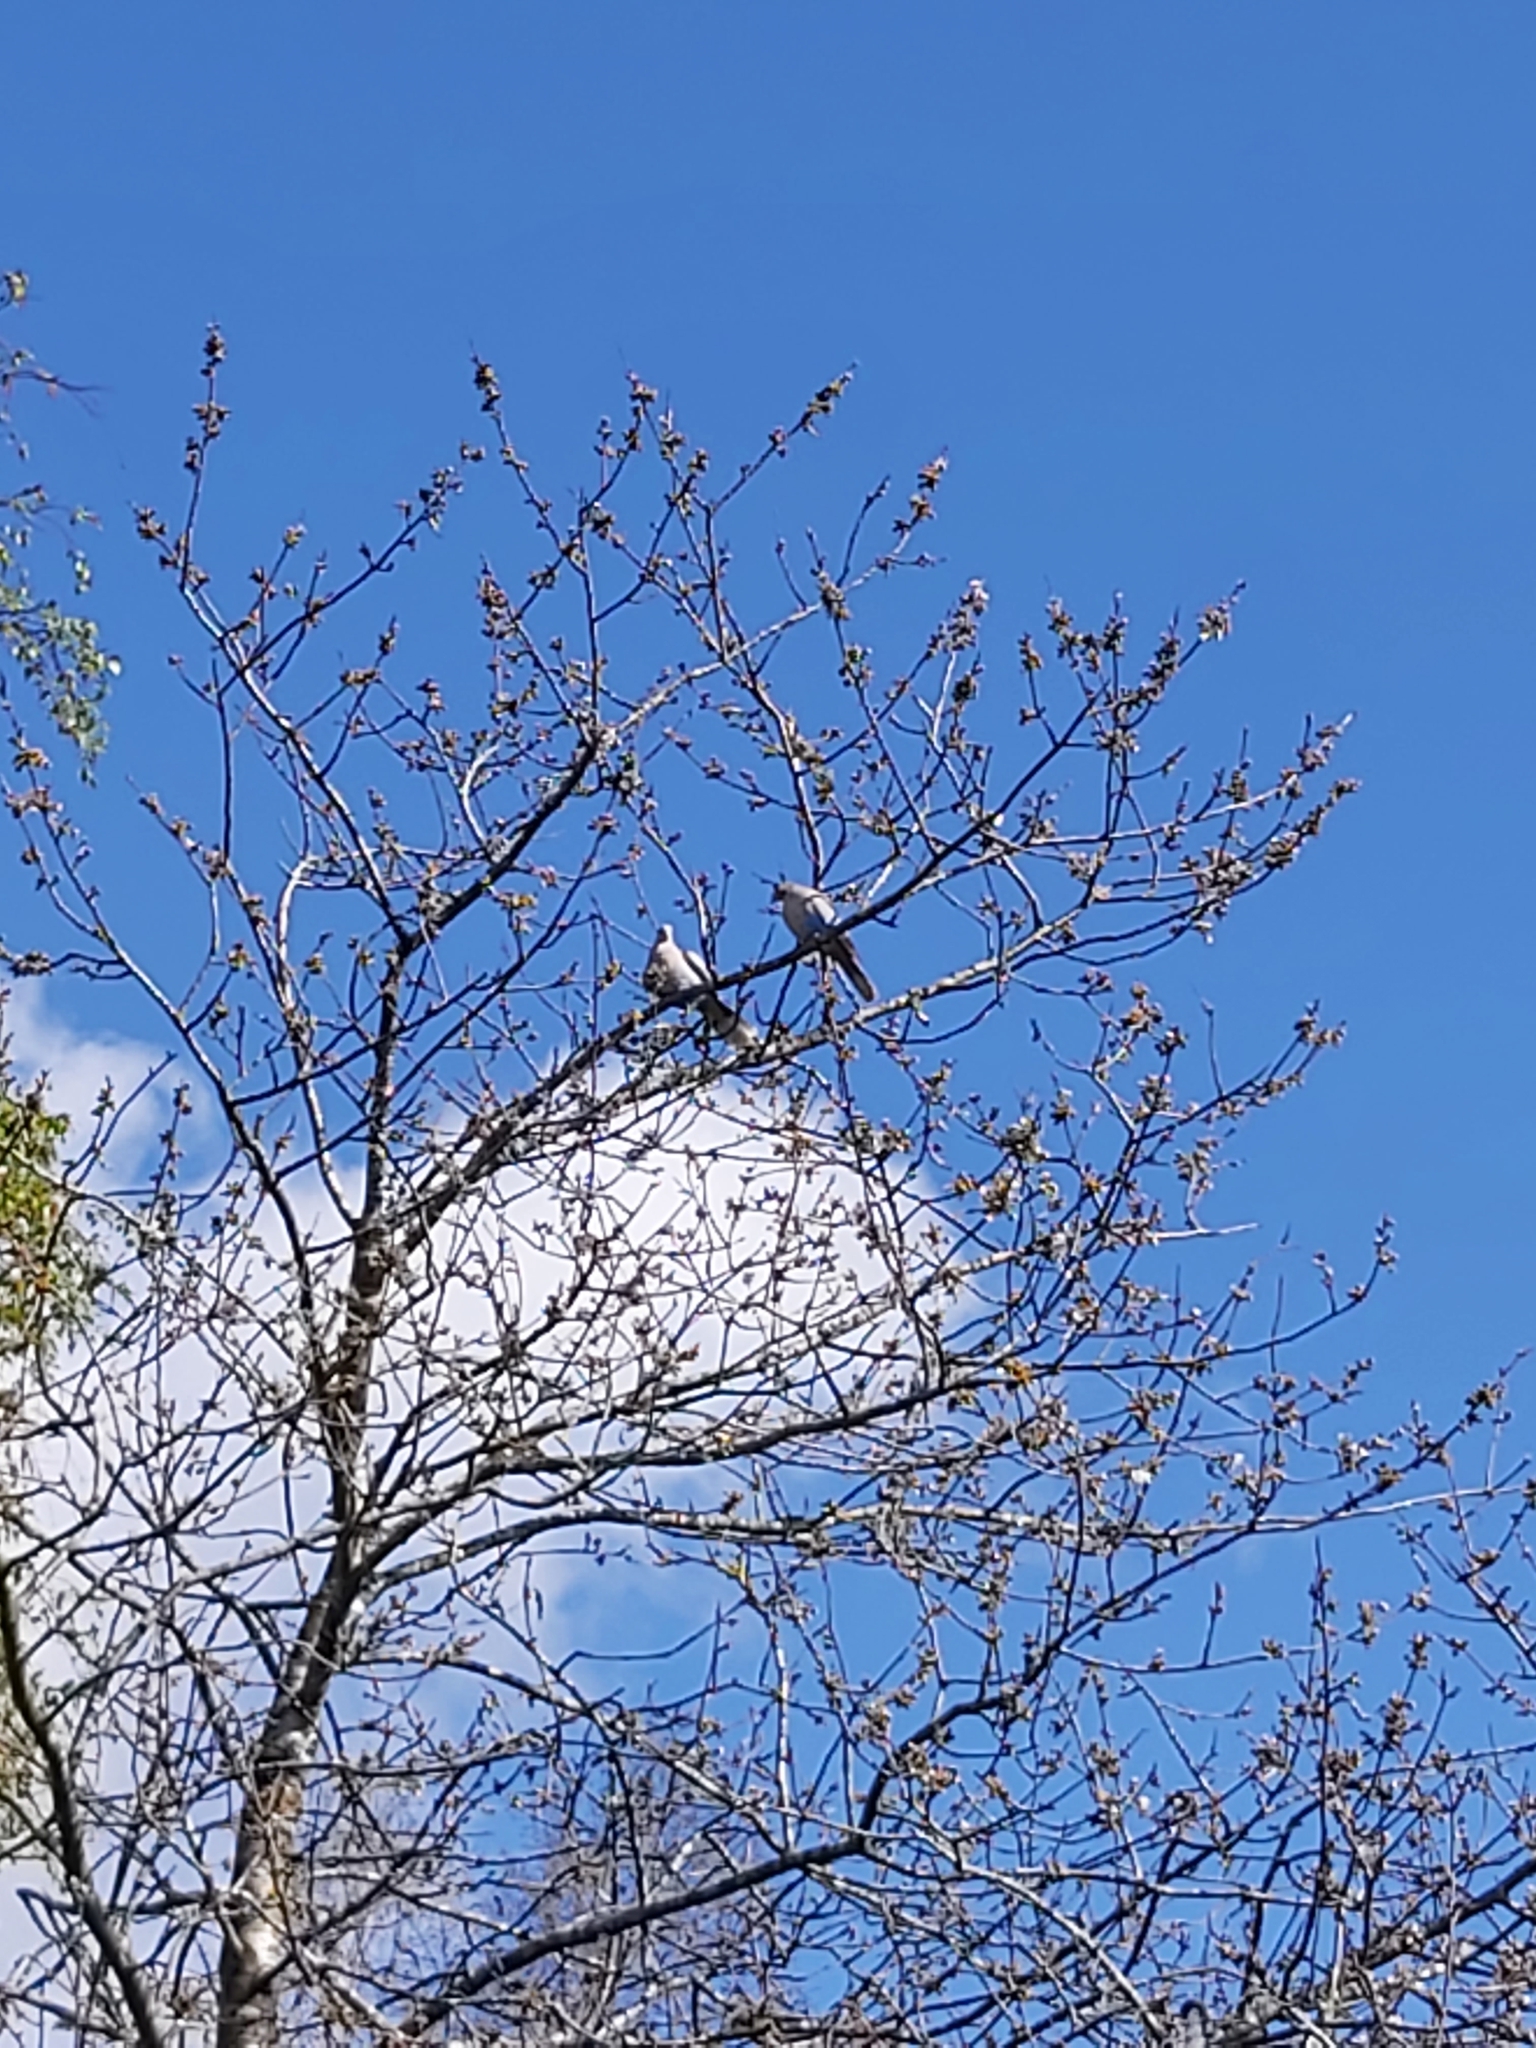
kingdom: Animalia
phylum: Chordata
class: Aves
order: Columbiformes
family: Columbidae
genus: Streptopelia
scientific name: Streptopelia decaocto
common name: Eurasian collared dove
